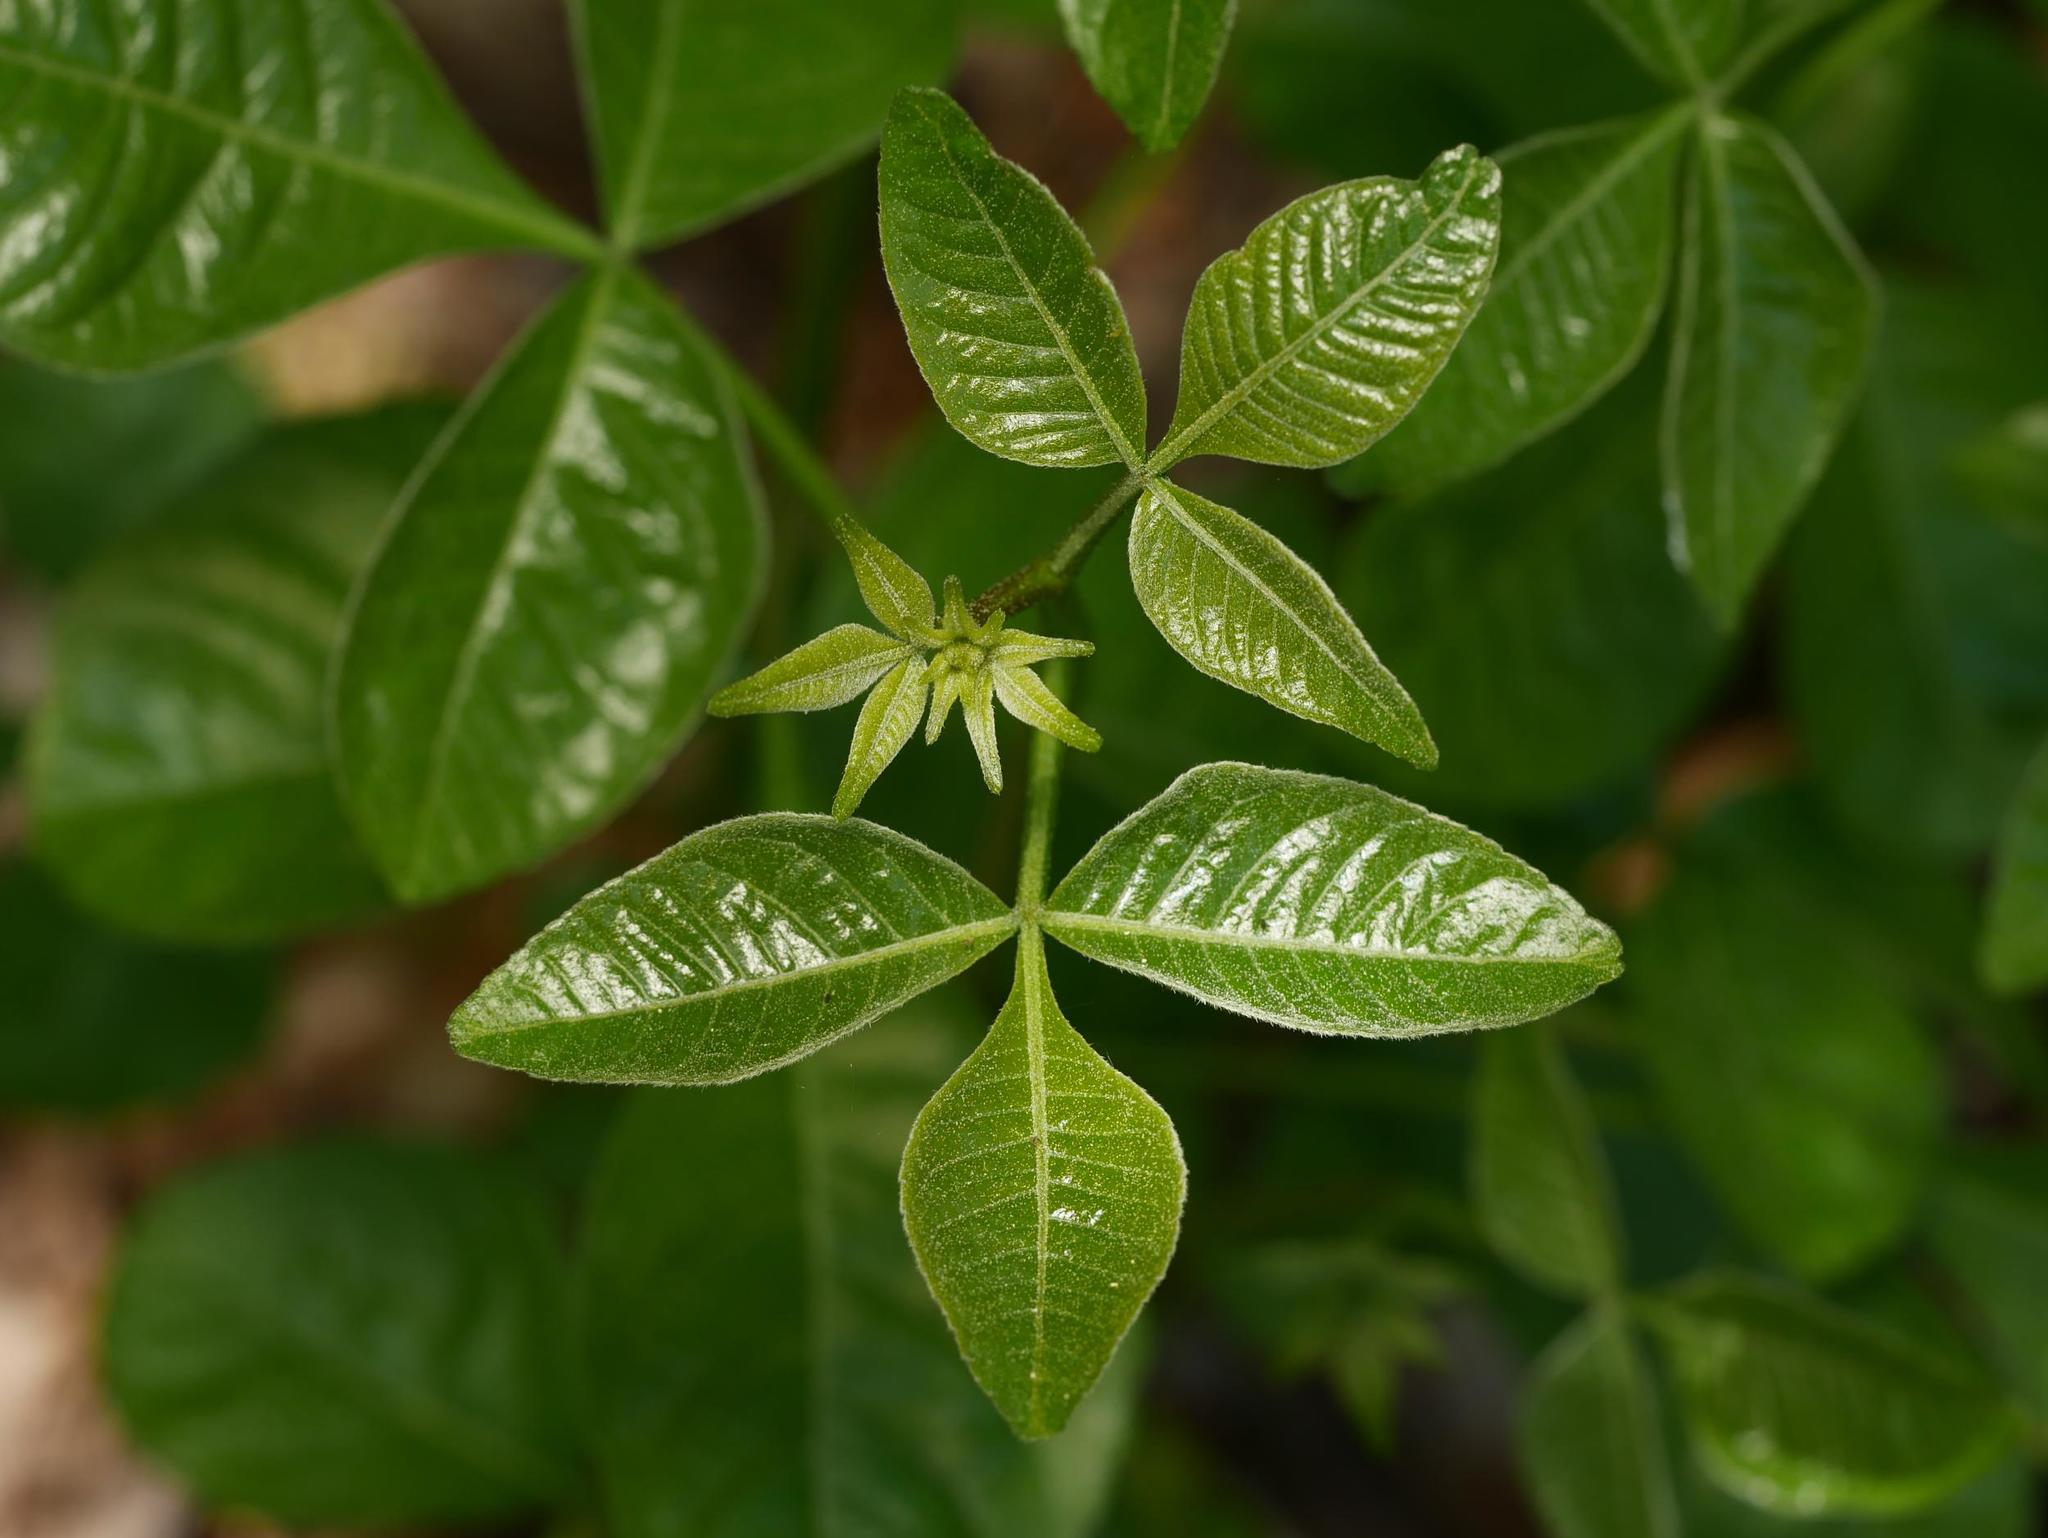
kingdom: Plantae
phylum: Tracheophyta
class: Magnoliopsida
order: Sapindales
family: Rutaceae
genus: Ptelea
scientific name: Ptelea trifoliata
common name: Common hop-tree
